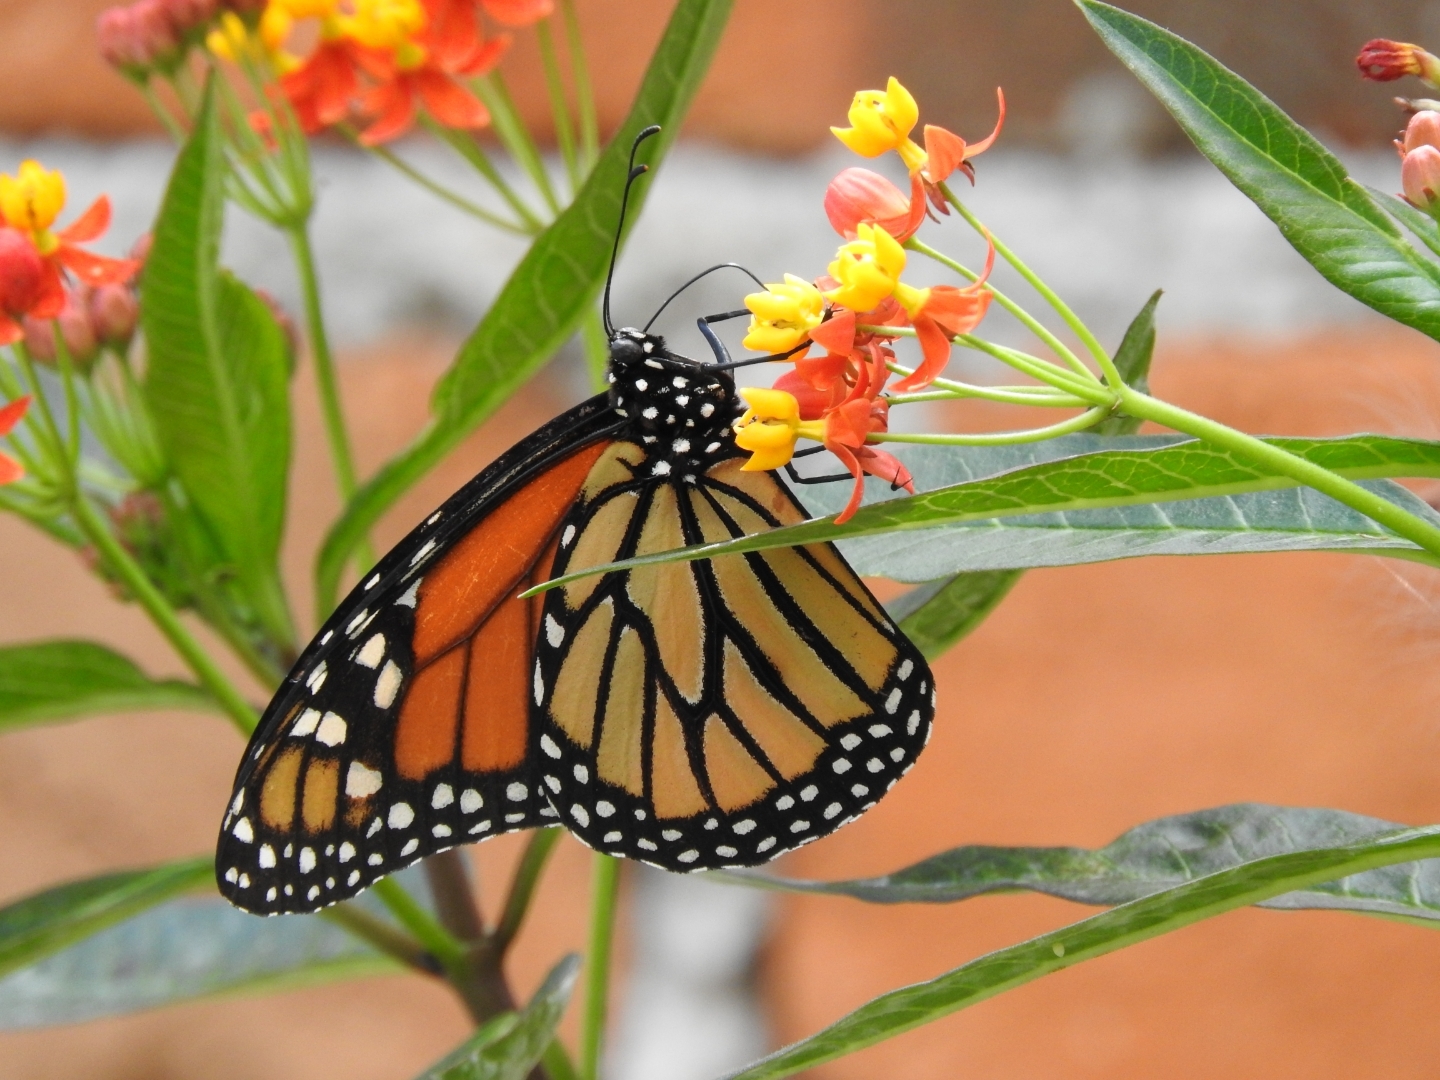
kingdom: Animalia
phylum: Arthropoda
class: Insecta
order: Lepidoptera
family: Nymphalidae
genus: Danaus
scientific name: Danaus plexippus
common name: Monarch
